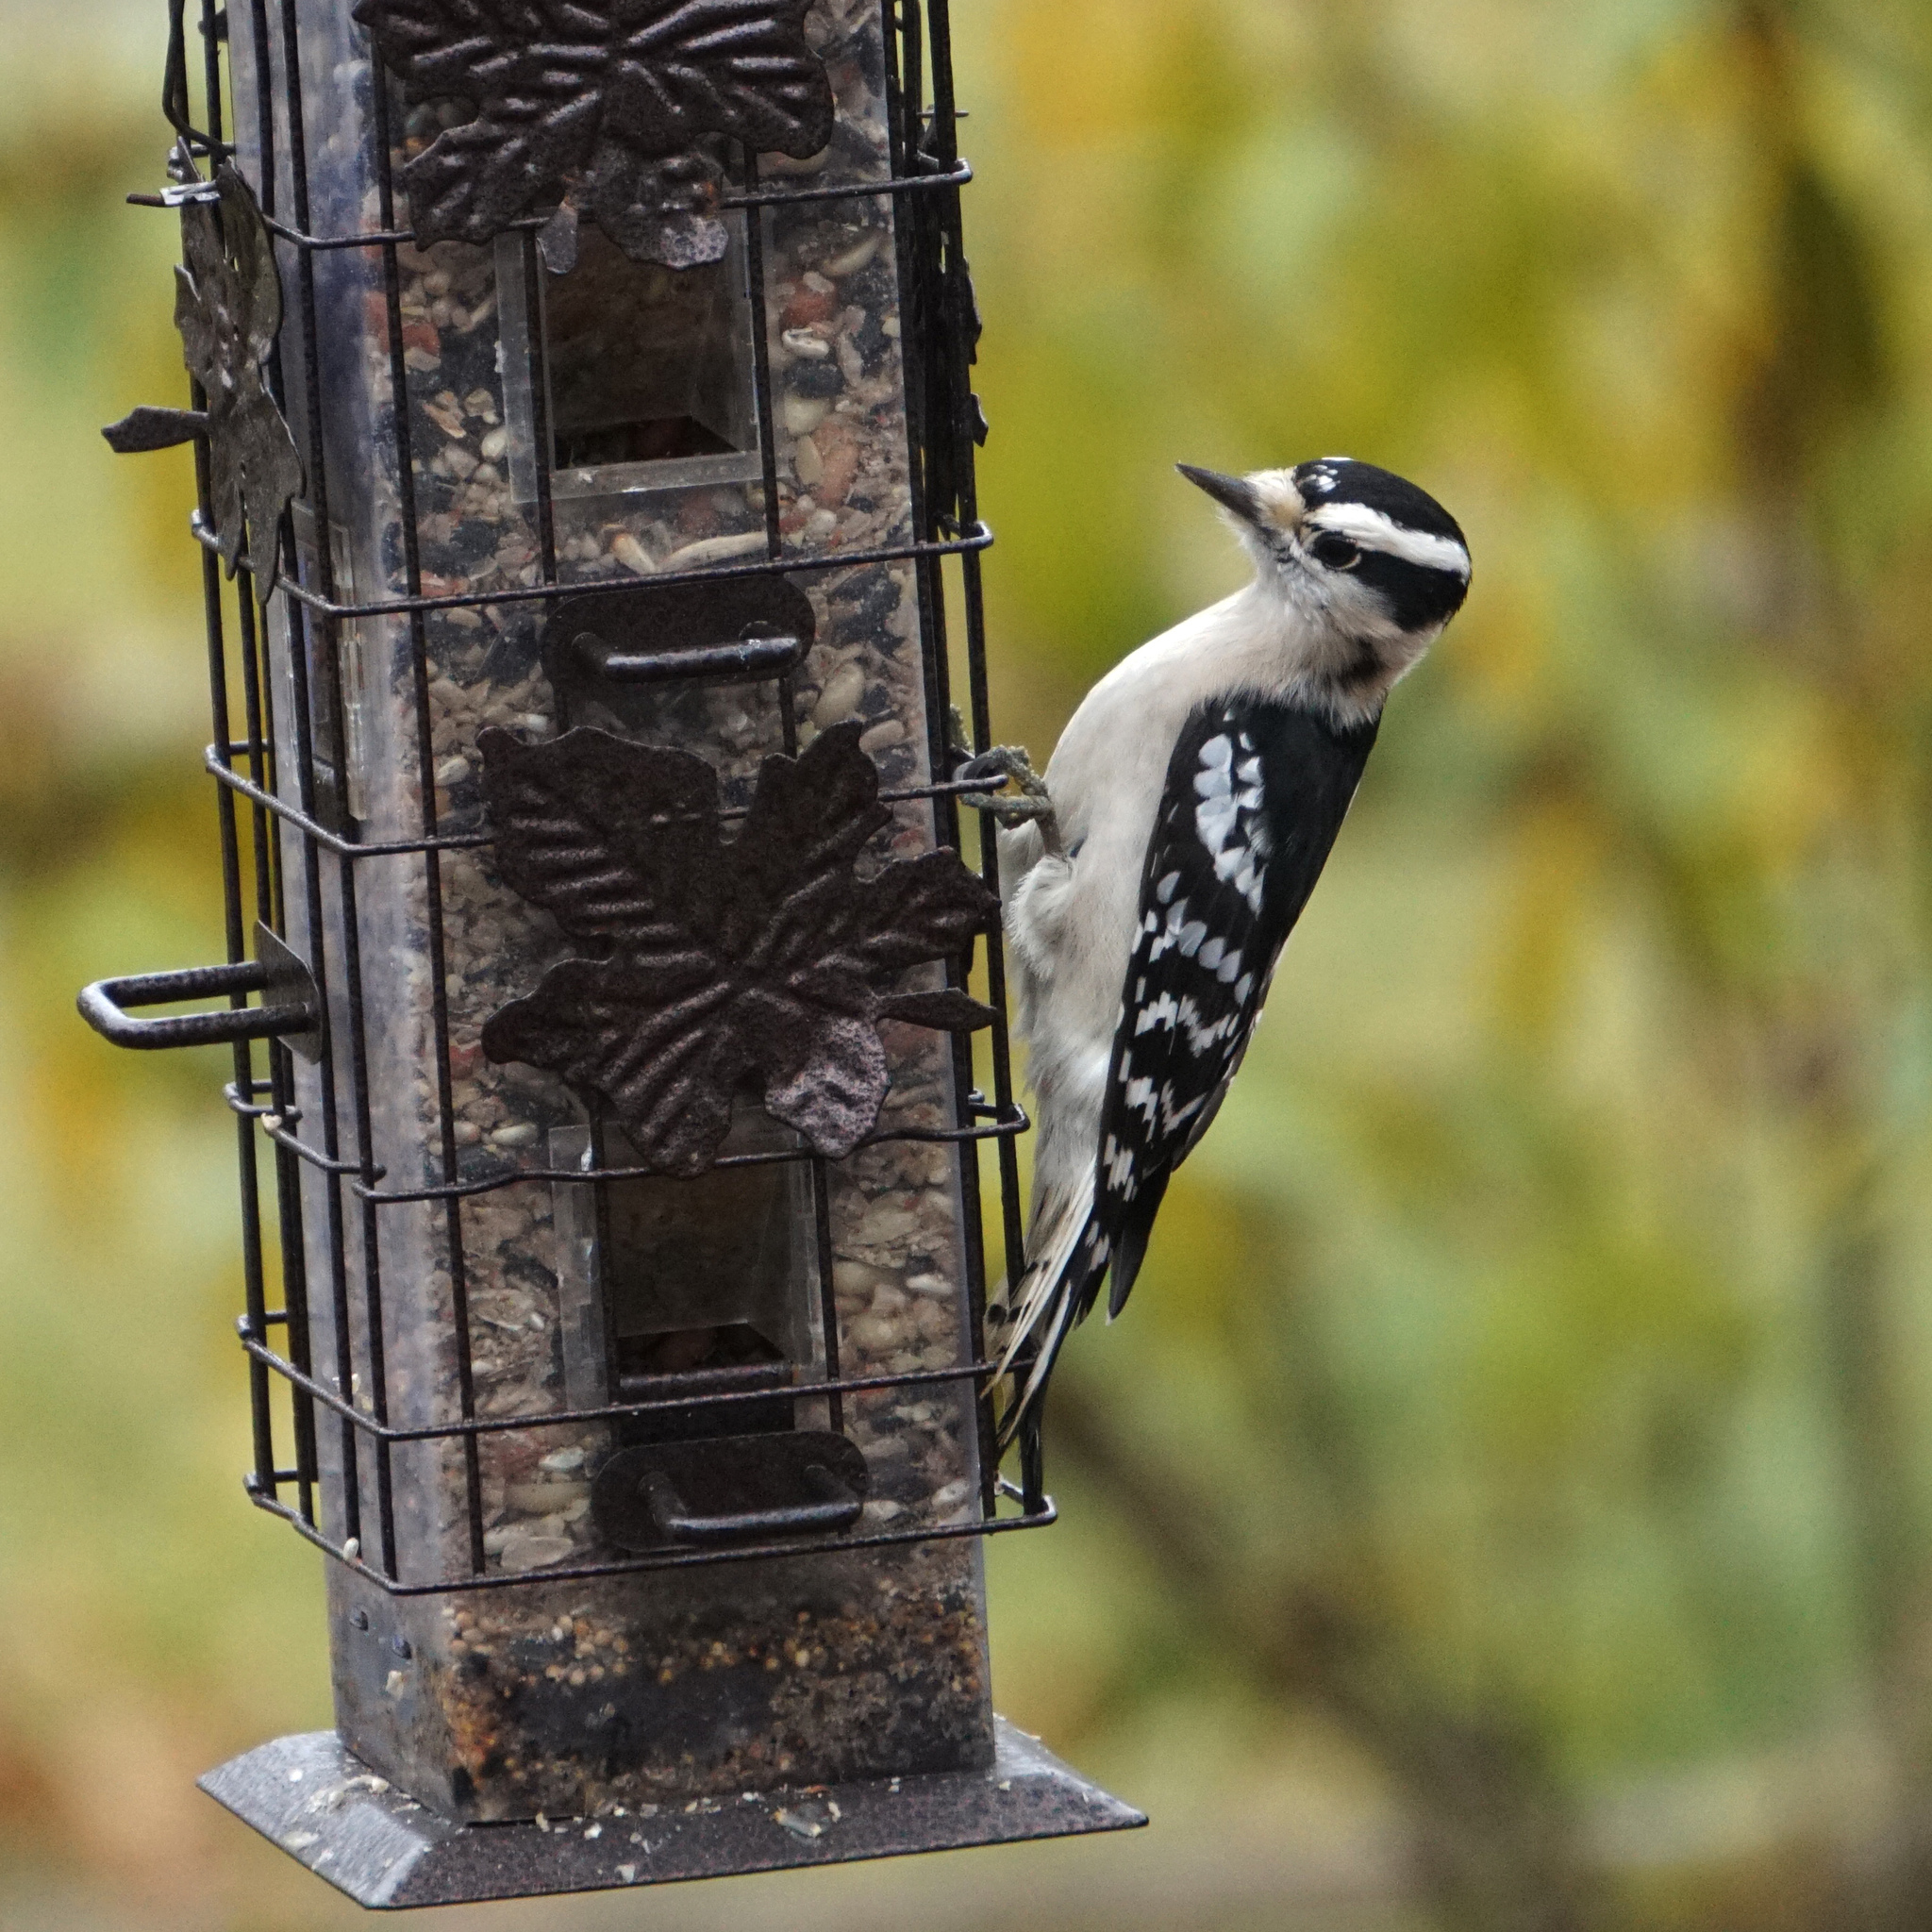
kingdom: Animalia
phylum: Chordata
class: Aves
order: Piciformes
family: Picidae
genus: Dryobates
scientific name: Dryobates pubescens
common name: Downy woodpecker
